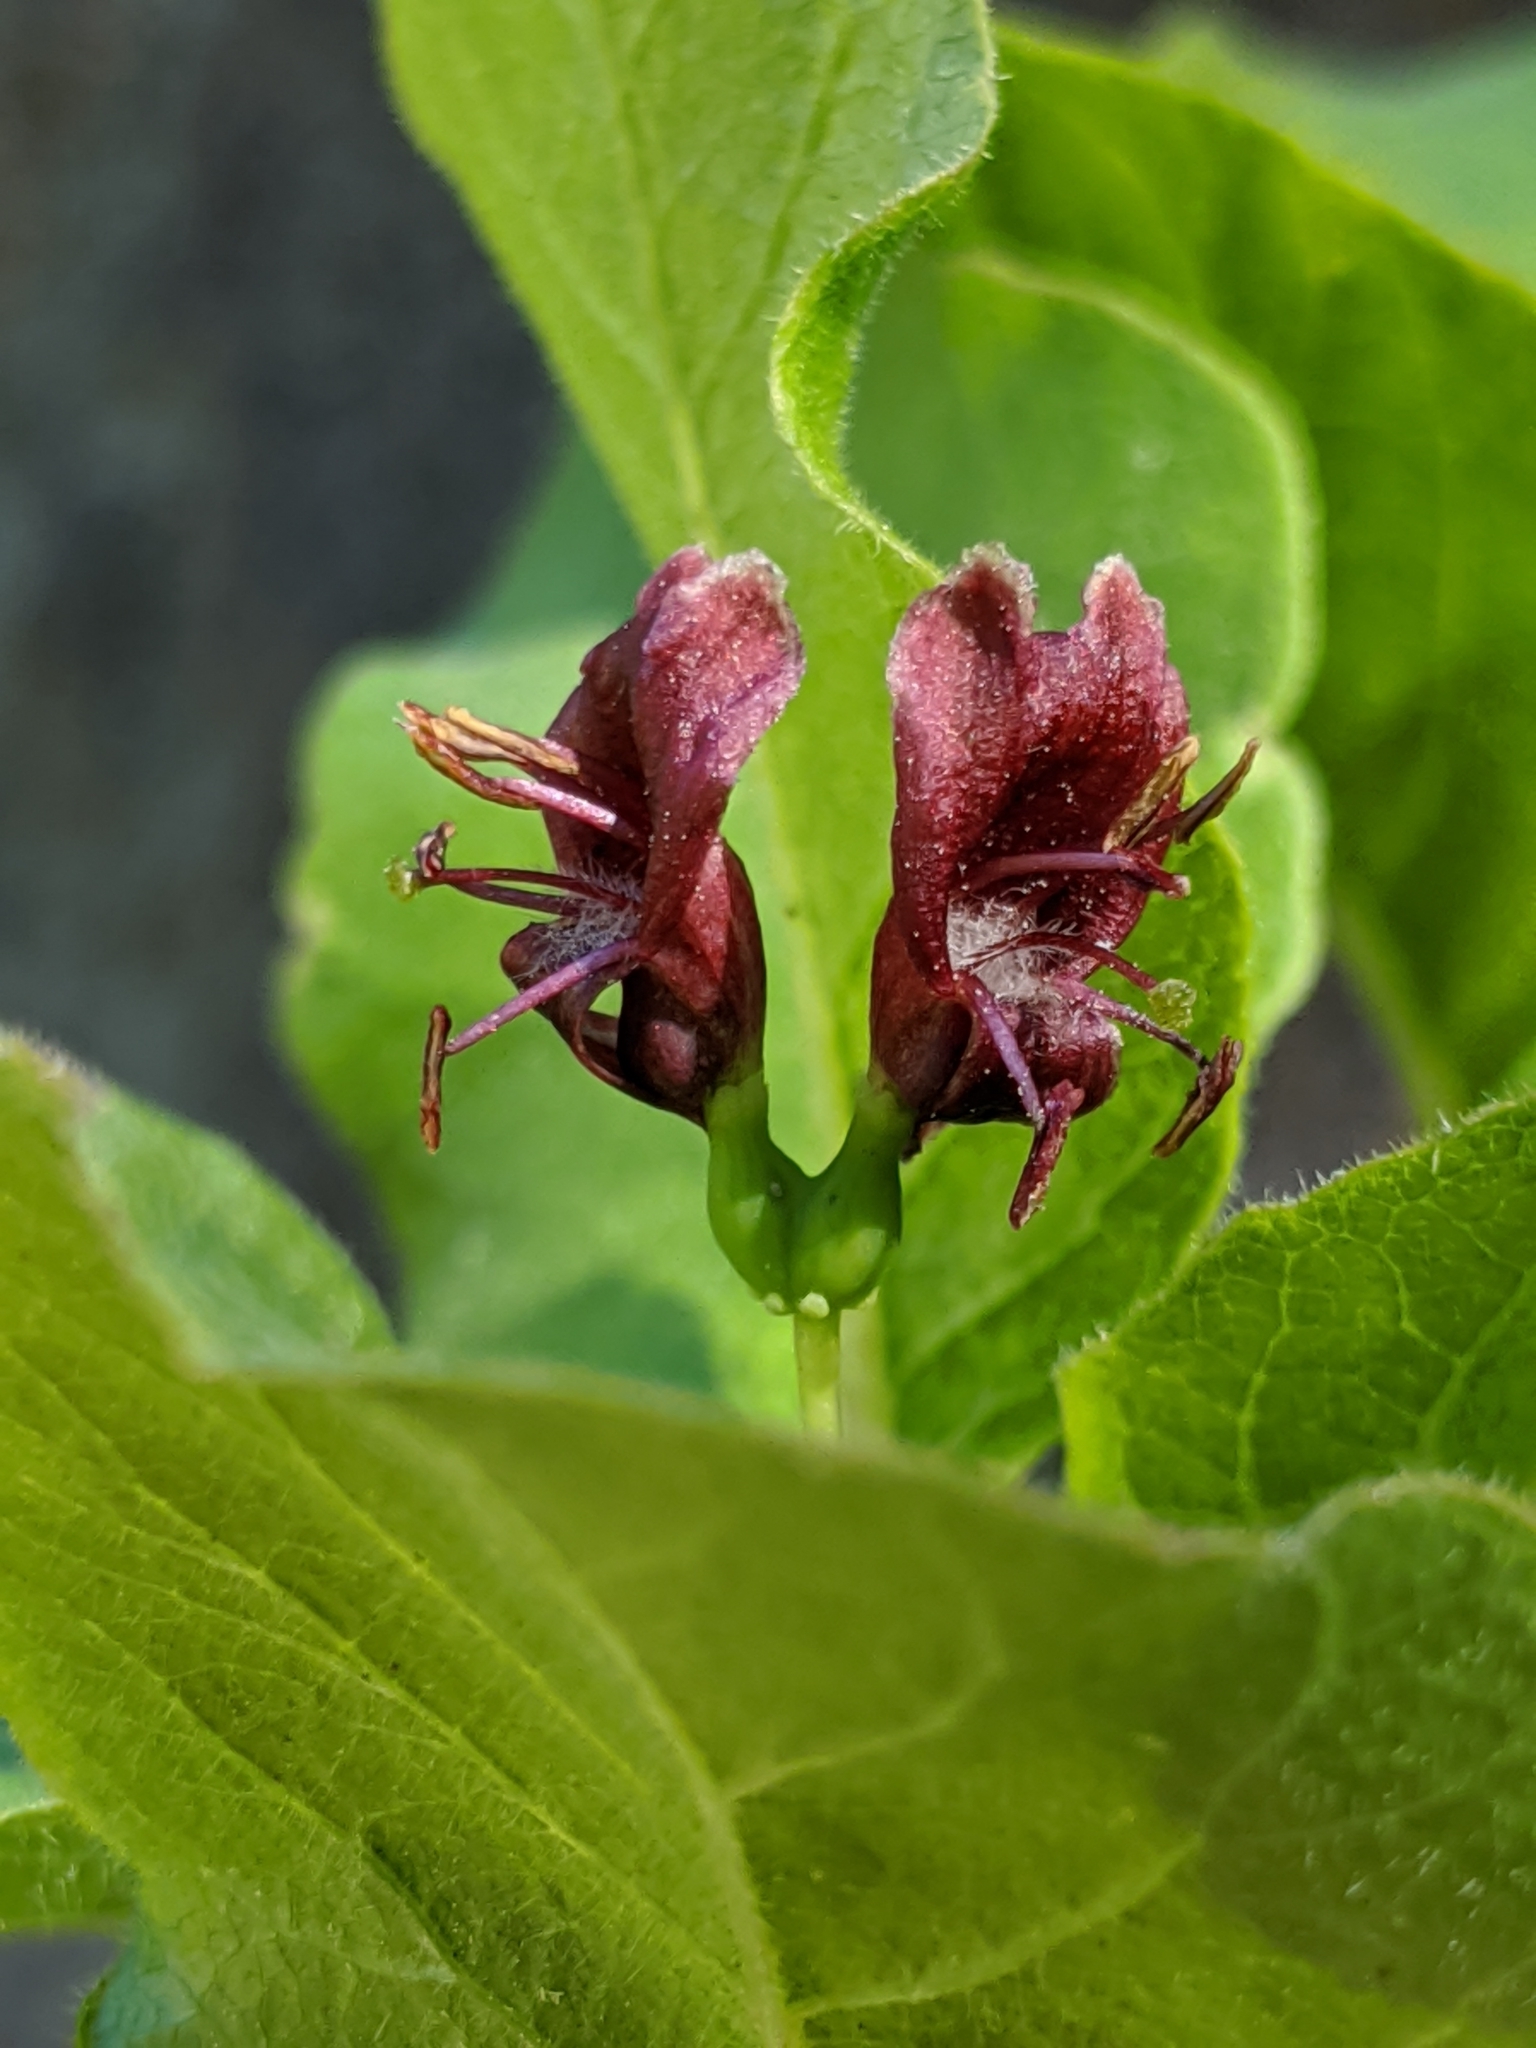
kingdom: Plantae
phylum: Tracheophyta
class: Magnoliopsida
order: Dipsacales
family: Caprifoliaceae
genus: Lonicera
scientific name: Lonicera conjugialis
